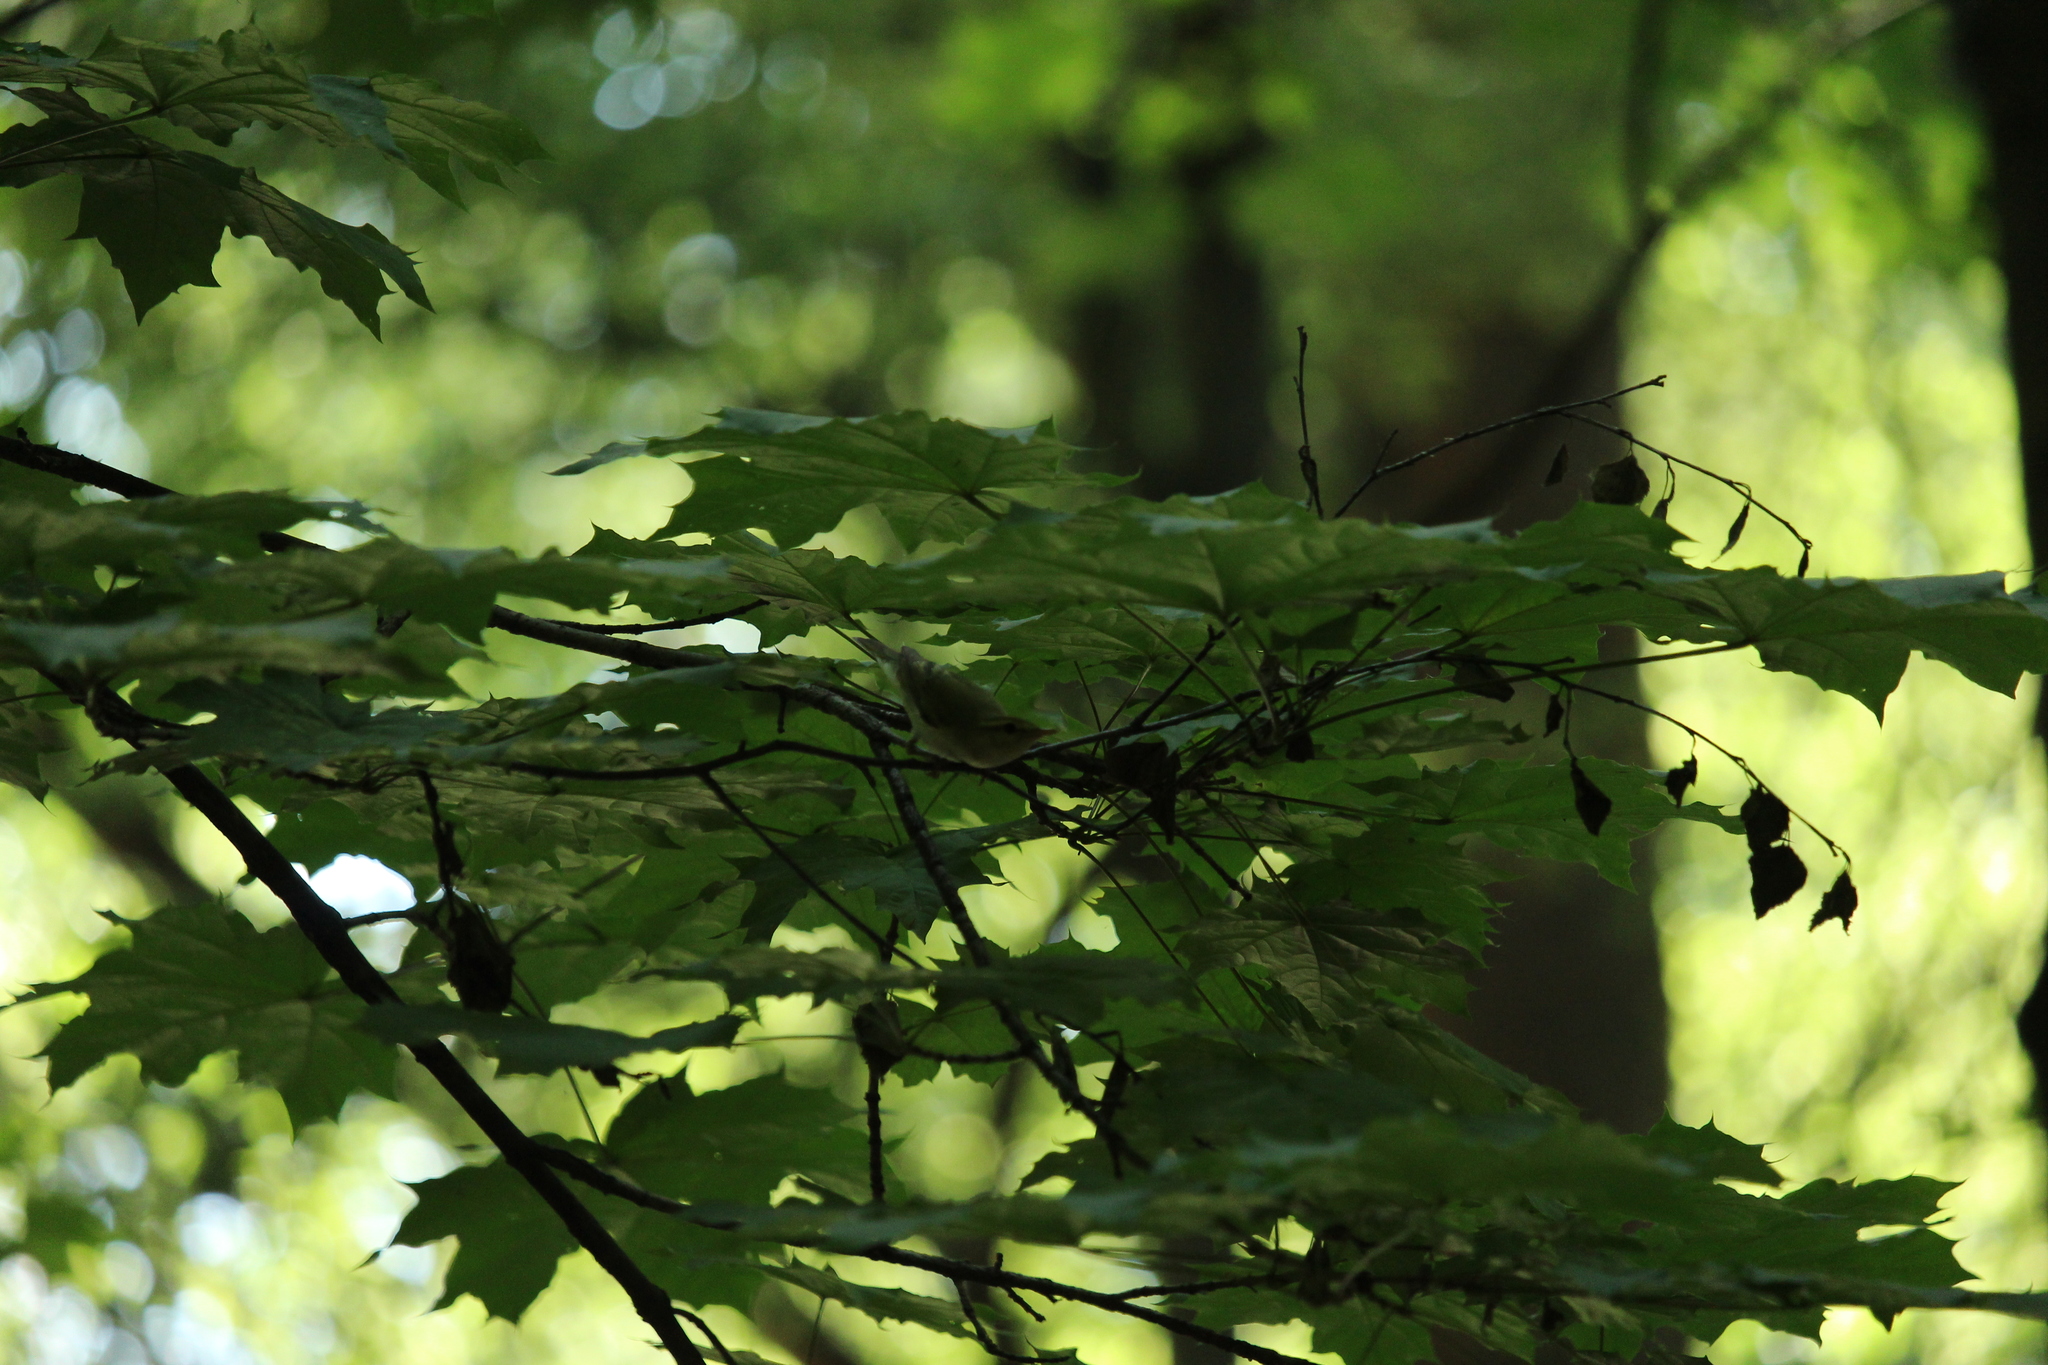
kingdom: Animalia
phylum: Chordata
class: Aves
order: Passeriformes
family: Phylloscopidae
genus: Phylloscopus
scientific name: Phylloscopus sibillatrix
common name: Wood warbler
